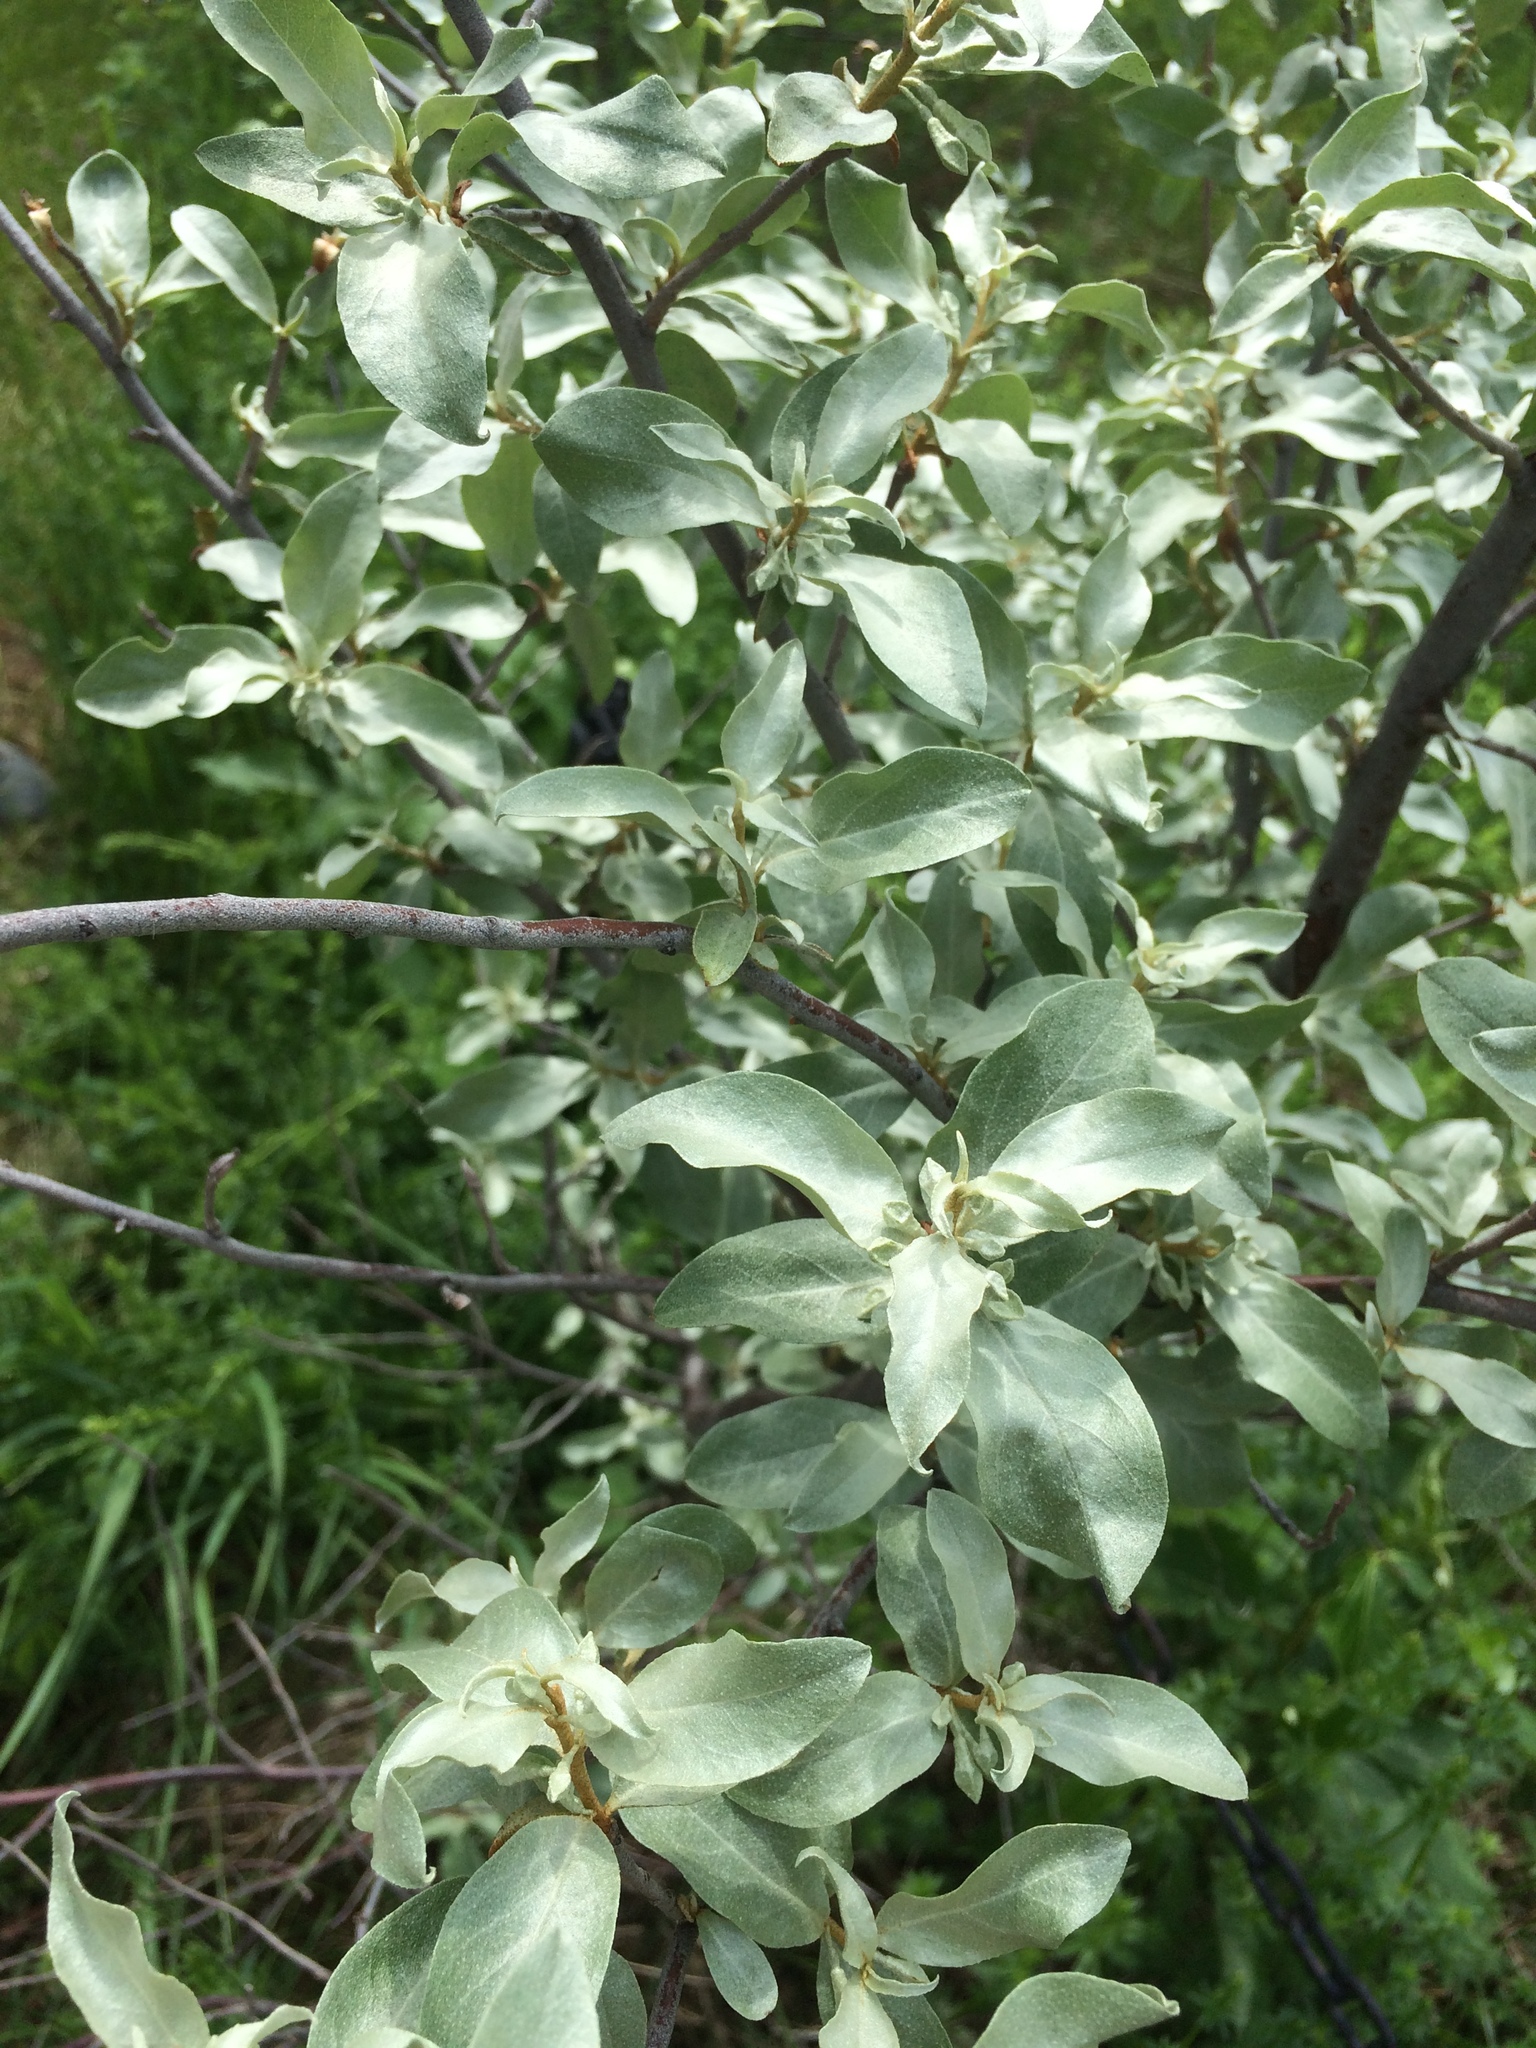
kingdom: Plantae
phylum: Tracheophyta
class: Magnoliopsida
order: Rosales
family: Elaeagnaceae
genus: Elaeagnus
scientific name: Elaeagnus commutata
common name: Silverberry
